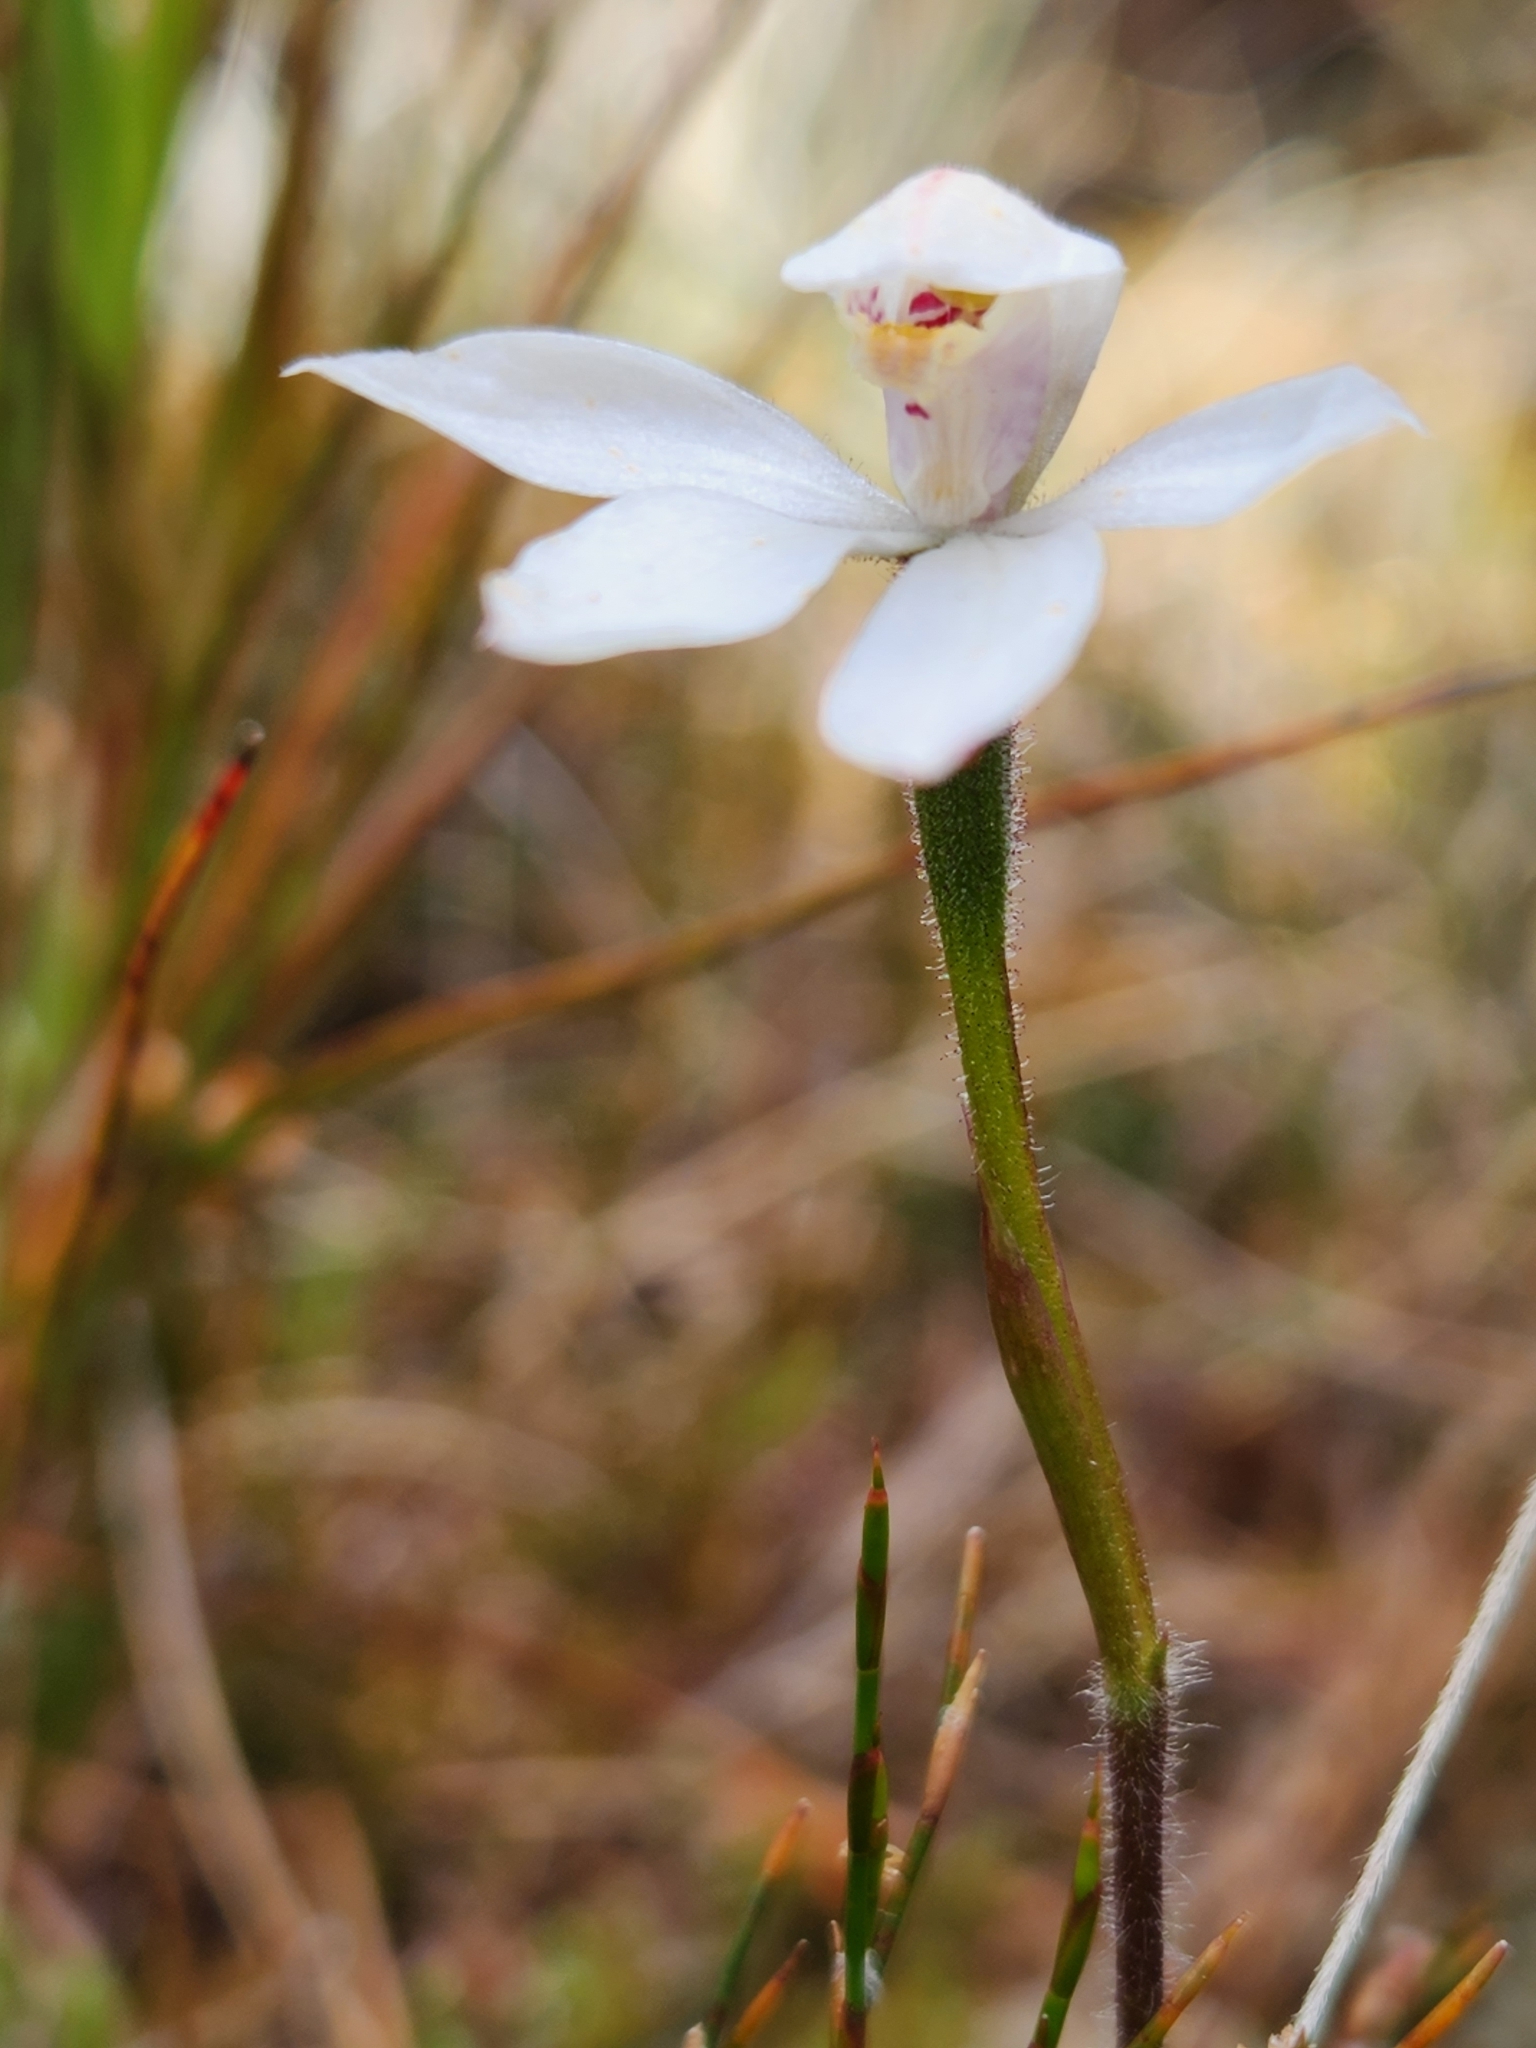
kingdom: Plantae
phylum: Tracheophyta
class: Liliopsida
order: Asparagales
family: Orchidaceae
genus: Caladenia
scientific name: Caladenia lyallii
